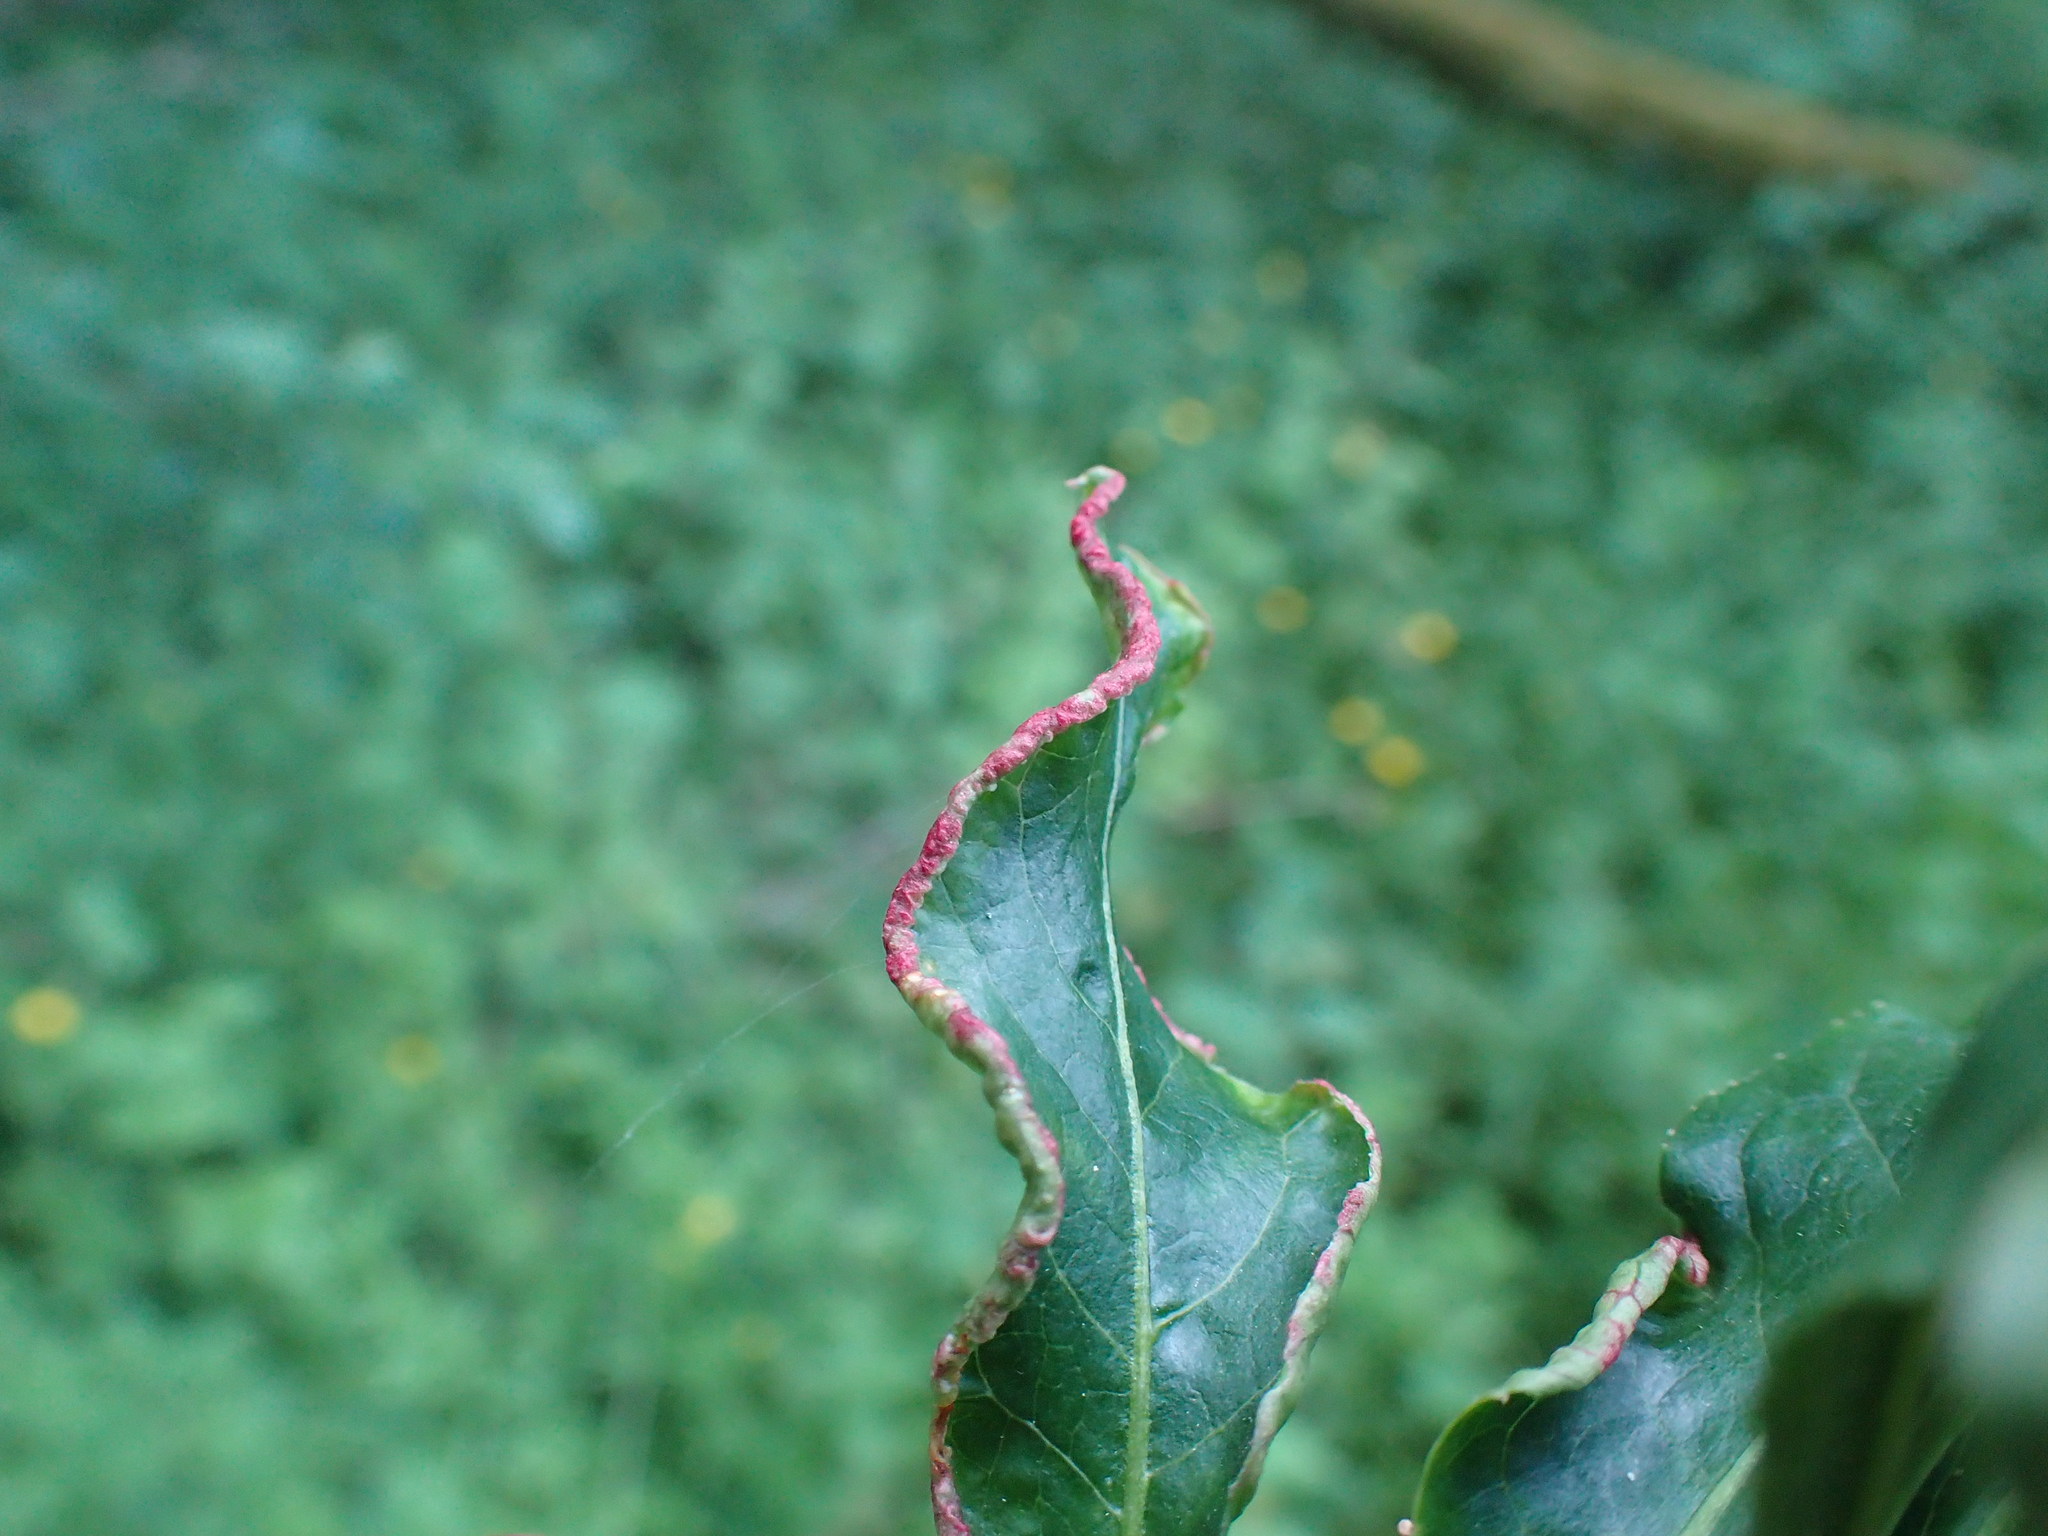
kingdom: Animalia
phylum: Arthropoda
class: Arachnida
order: Trombidiformes
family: Eriophyidae
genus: Stenacis
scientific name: Stenacis evonymi
